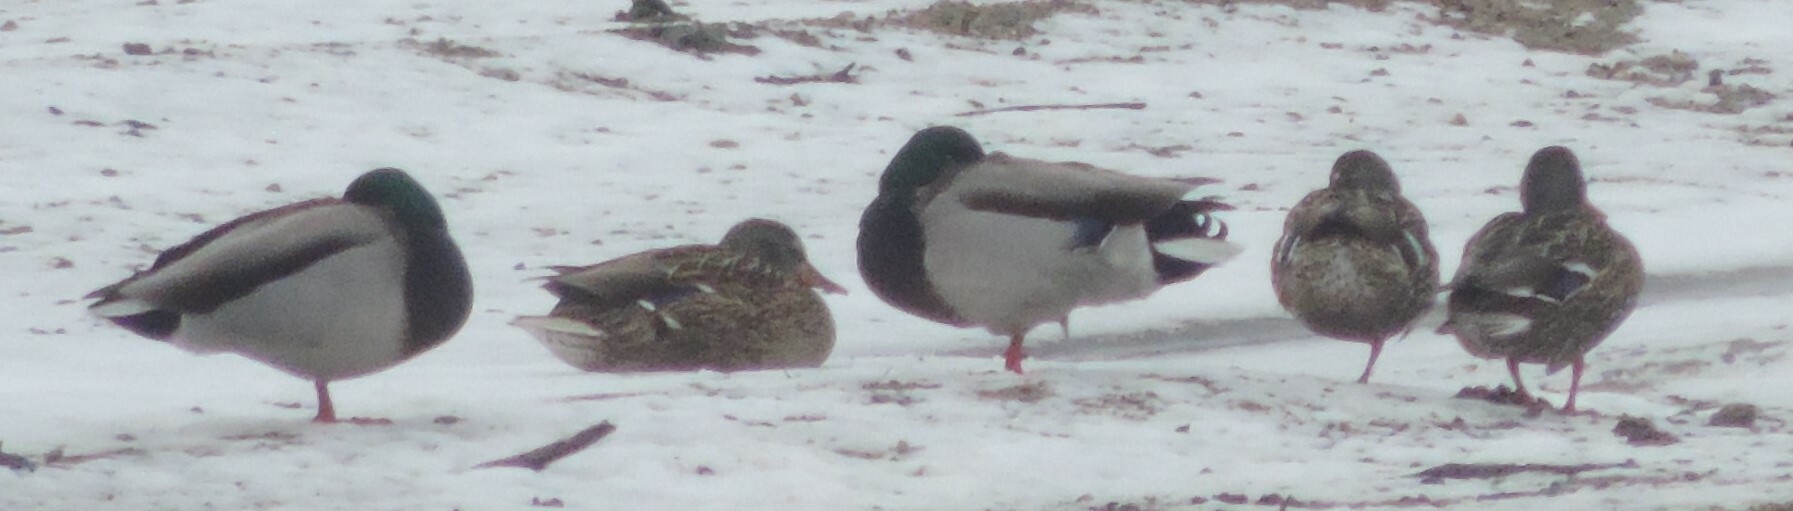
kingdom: Animalia
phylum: Chordata
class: Aves
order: Anseriformes
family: Anatidae
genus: Anas
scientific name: Anas platyrhynchos
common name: Mallard
